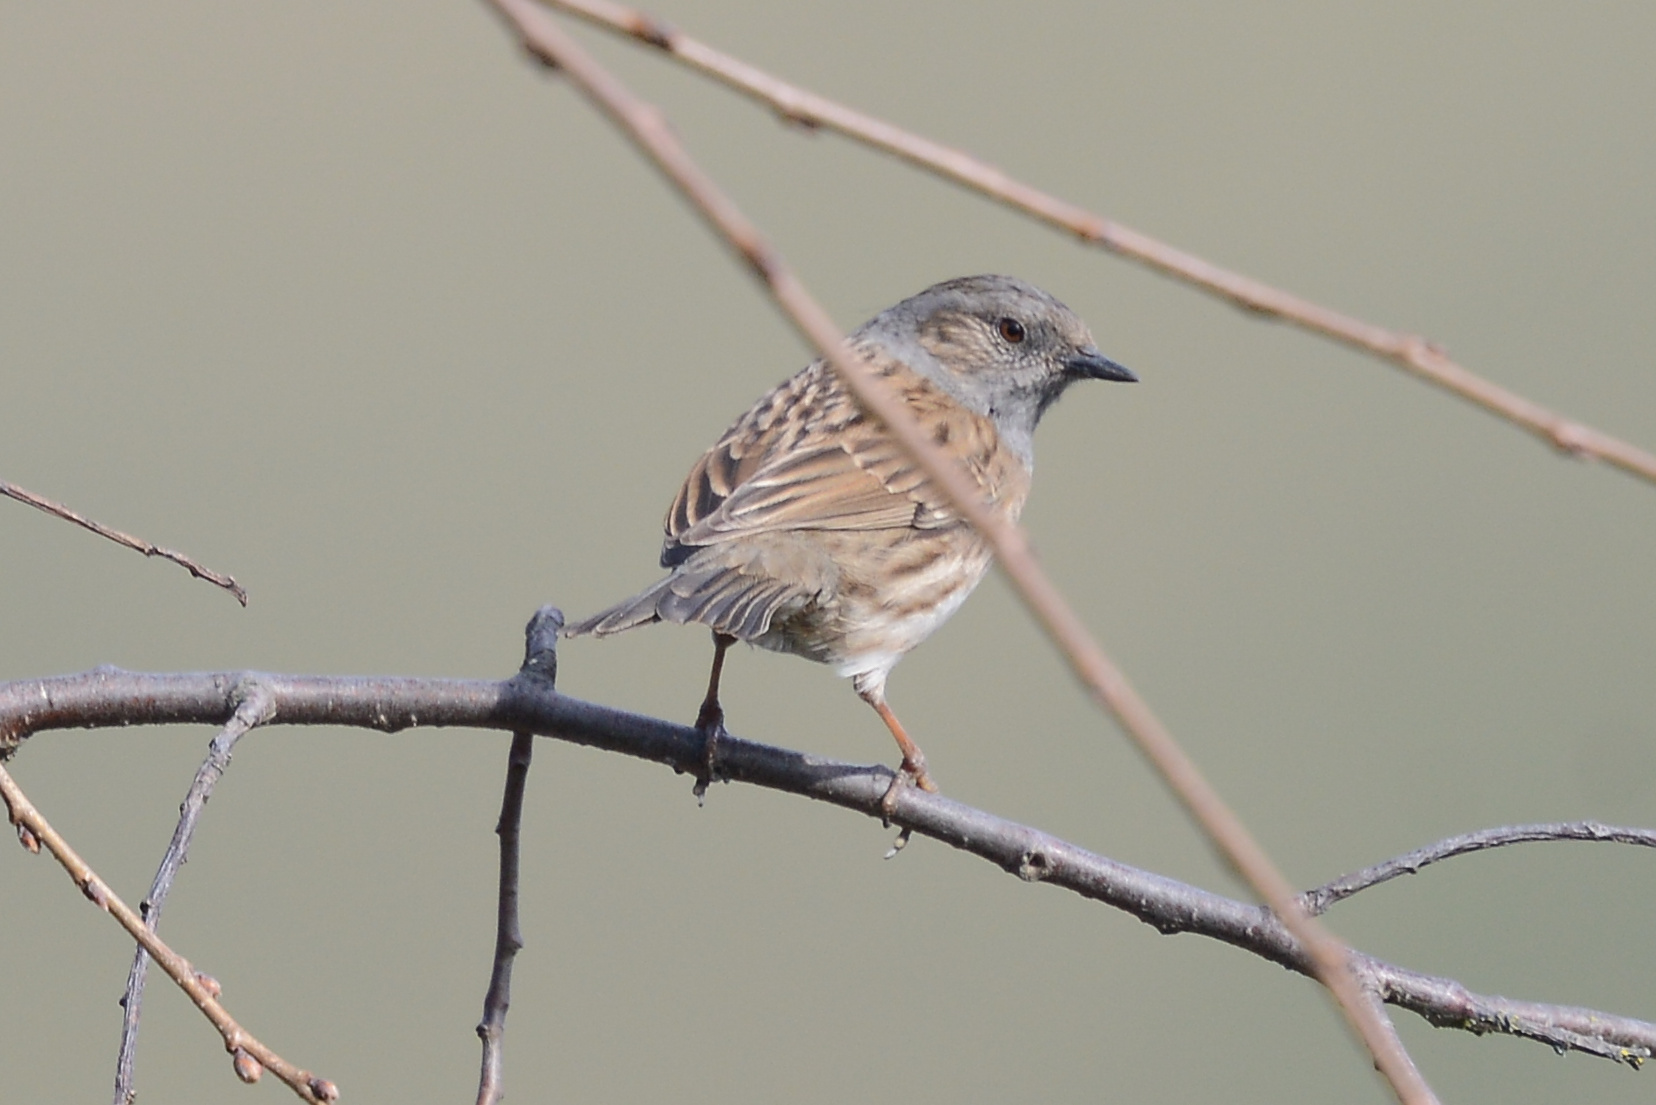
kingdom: Animalia
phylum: Chordata
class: Aves
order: Passeriformes
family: Prunellidae
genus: Prunella
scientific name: Prunella modularis
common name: Dunnock
